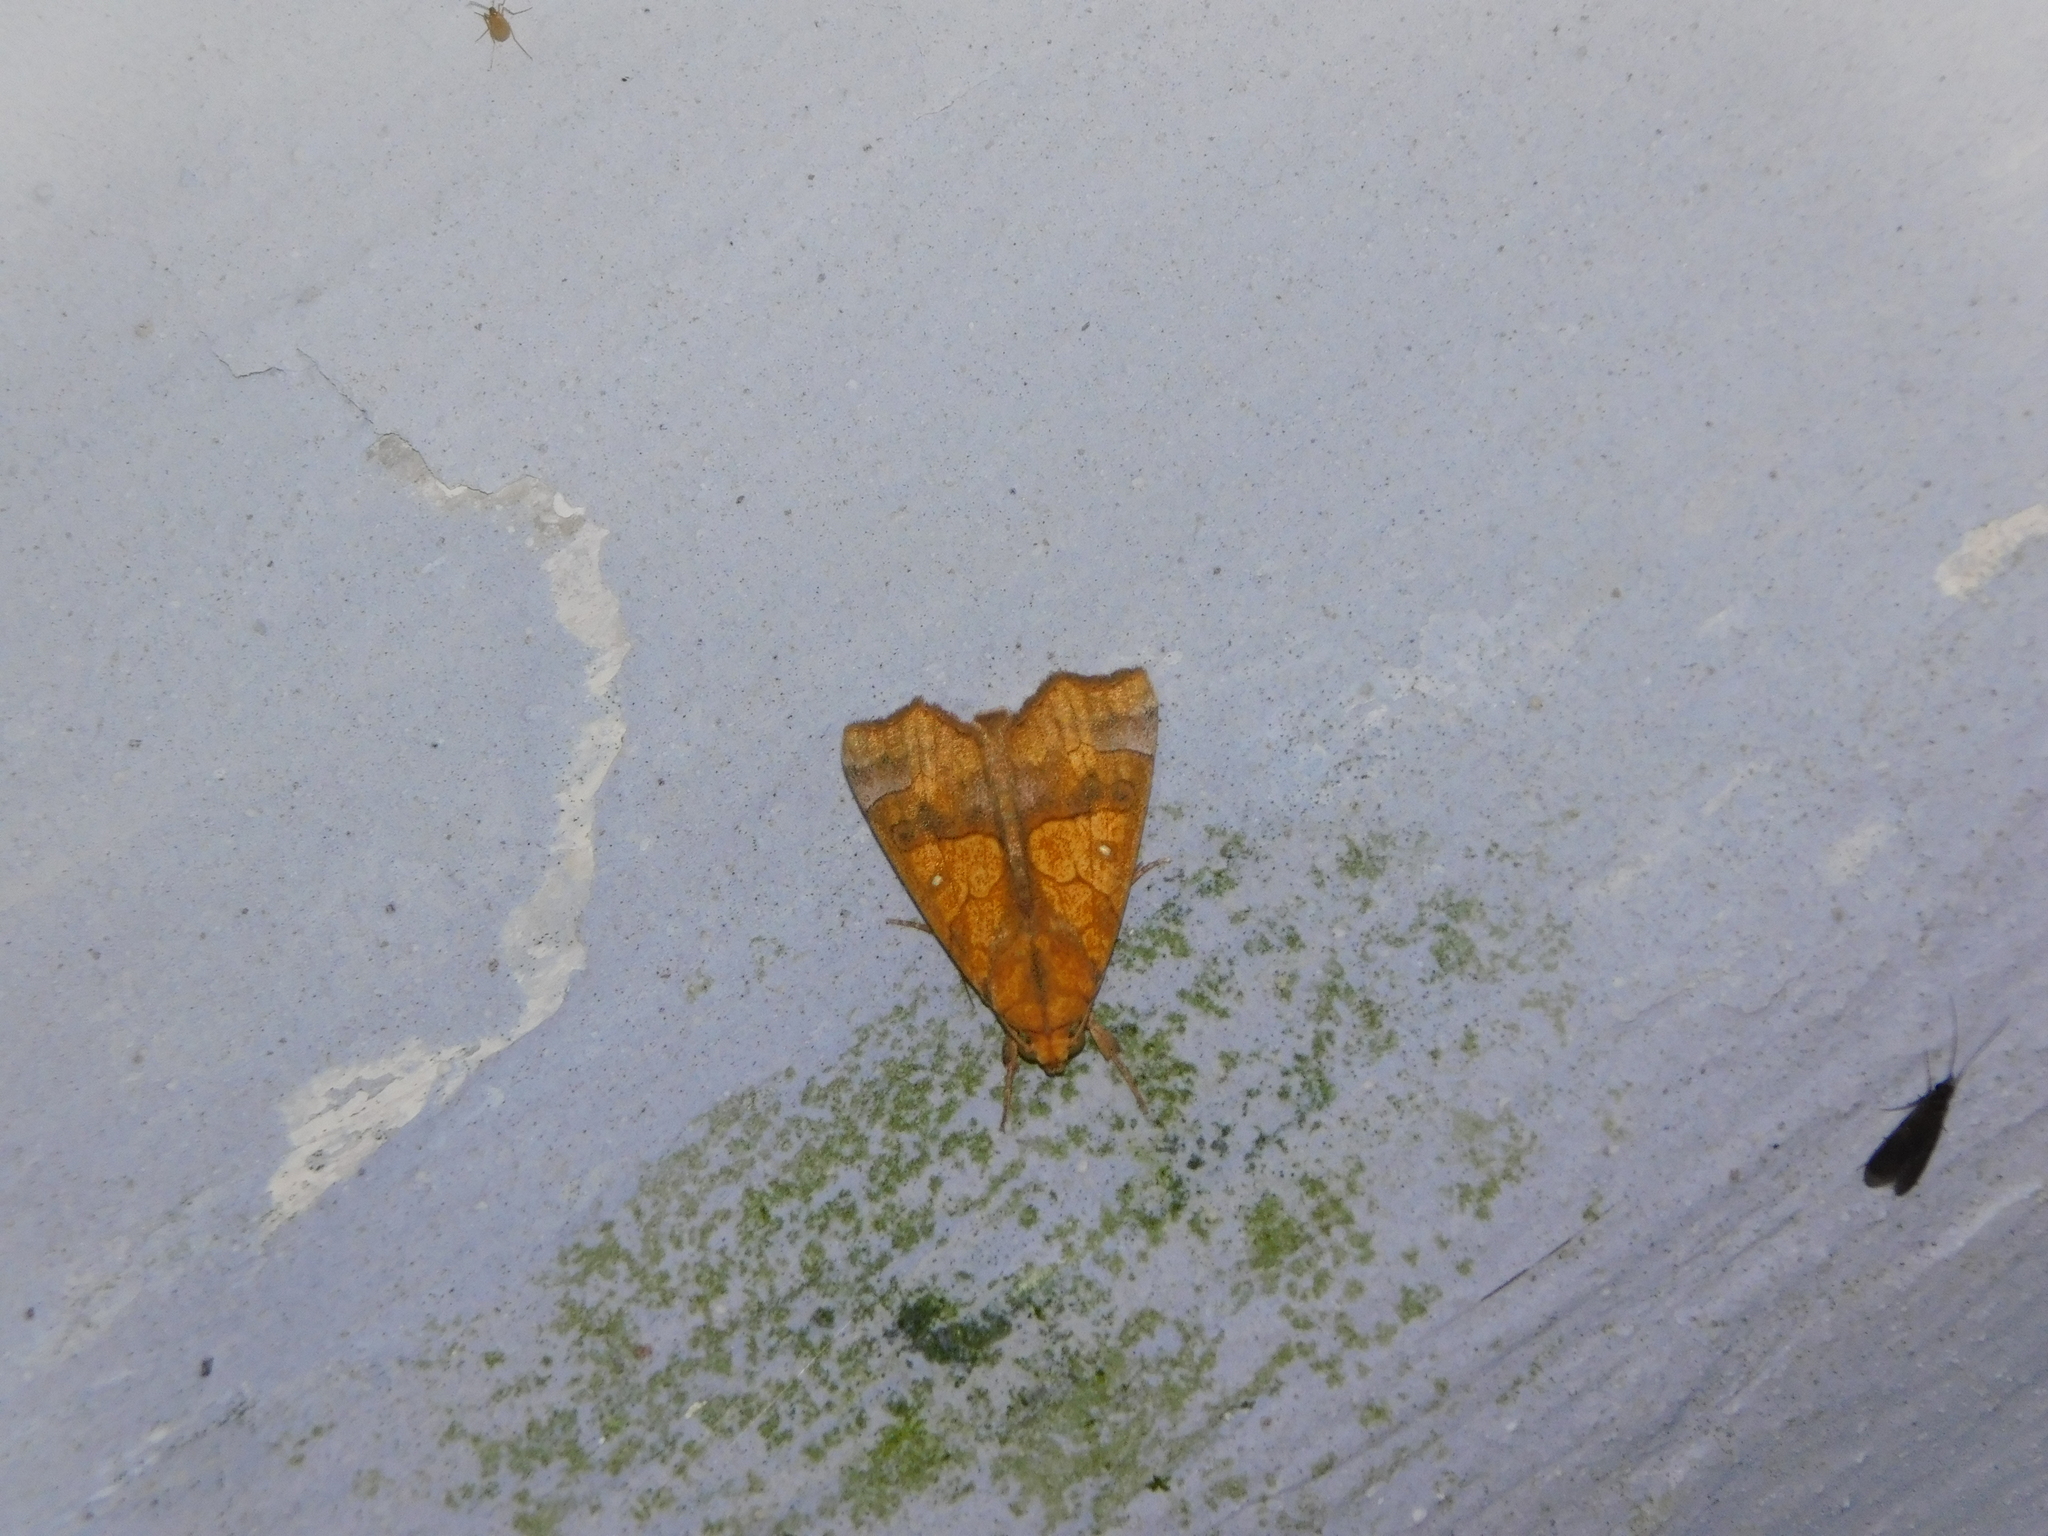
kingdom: Animalia
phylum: Arthropoda
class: Insecta
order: Lepidoptera
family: Erebidae
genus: Anomis
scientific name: Anomis flava
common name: Moth
